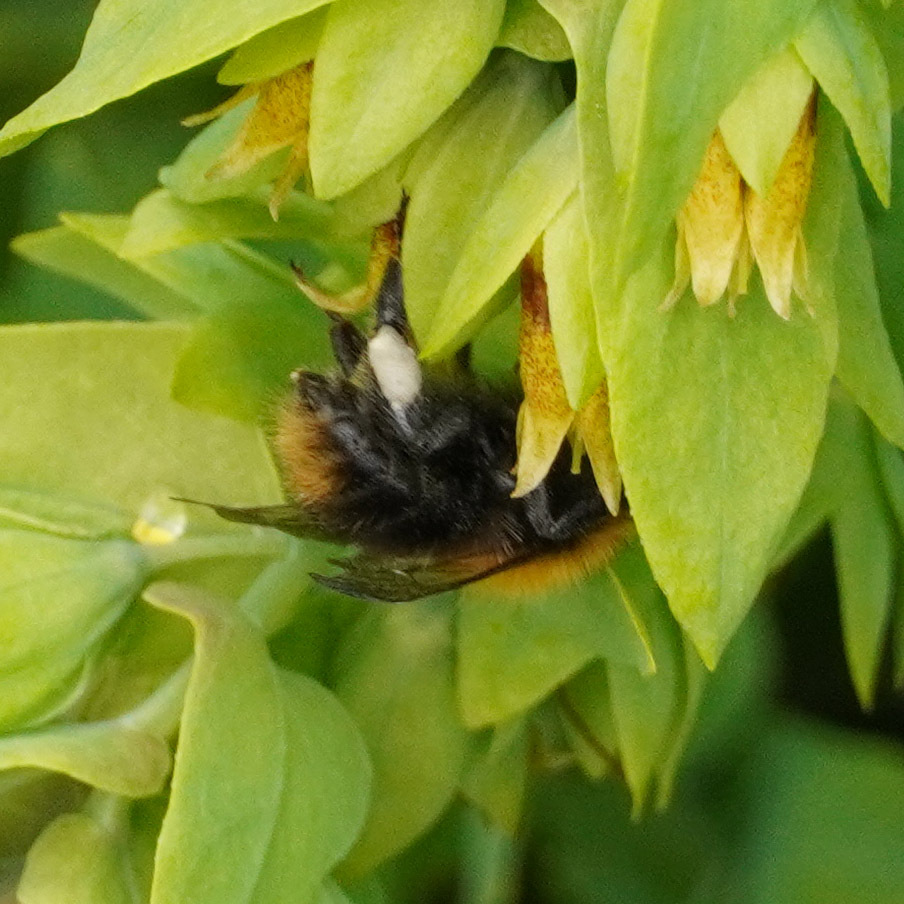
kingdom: Animalia
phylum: Arthropoda
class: Insecta
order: Hymenoptera
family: Apidae
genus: Bombus
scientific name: Bombus pascuorum
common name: Common carder bee
